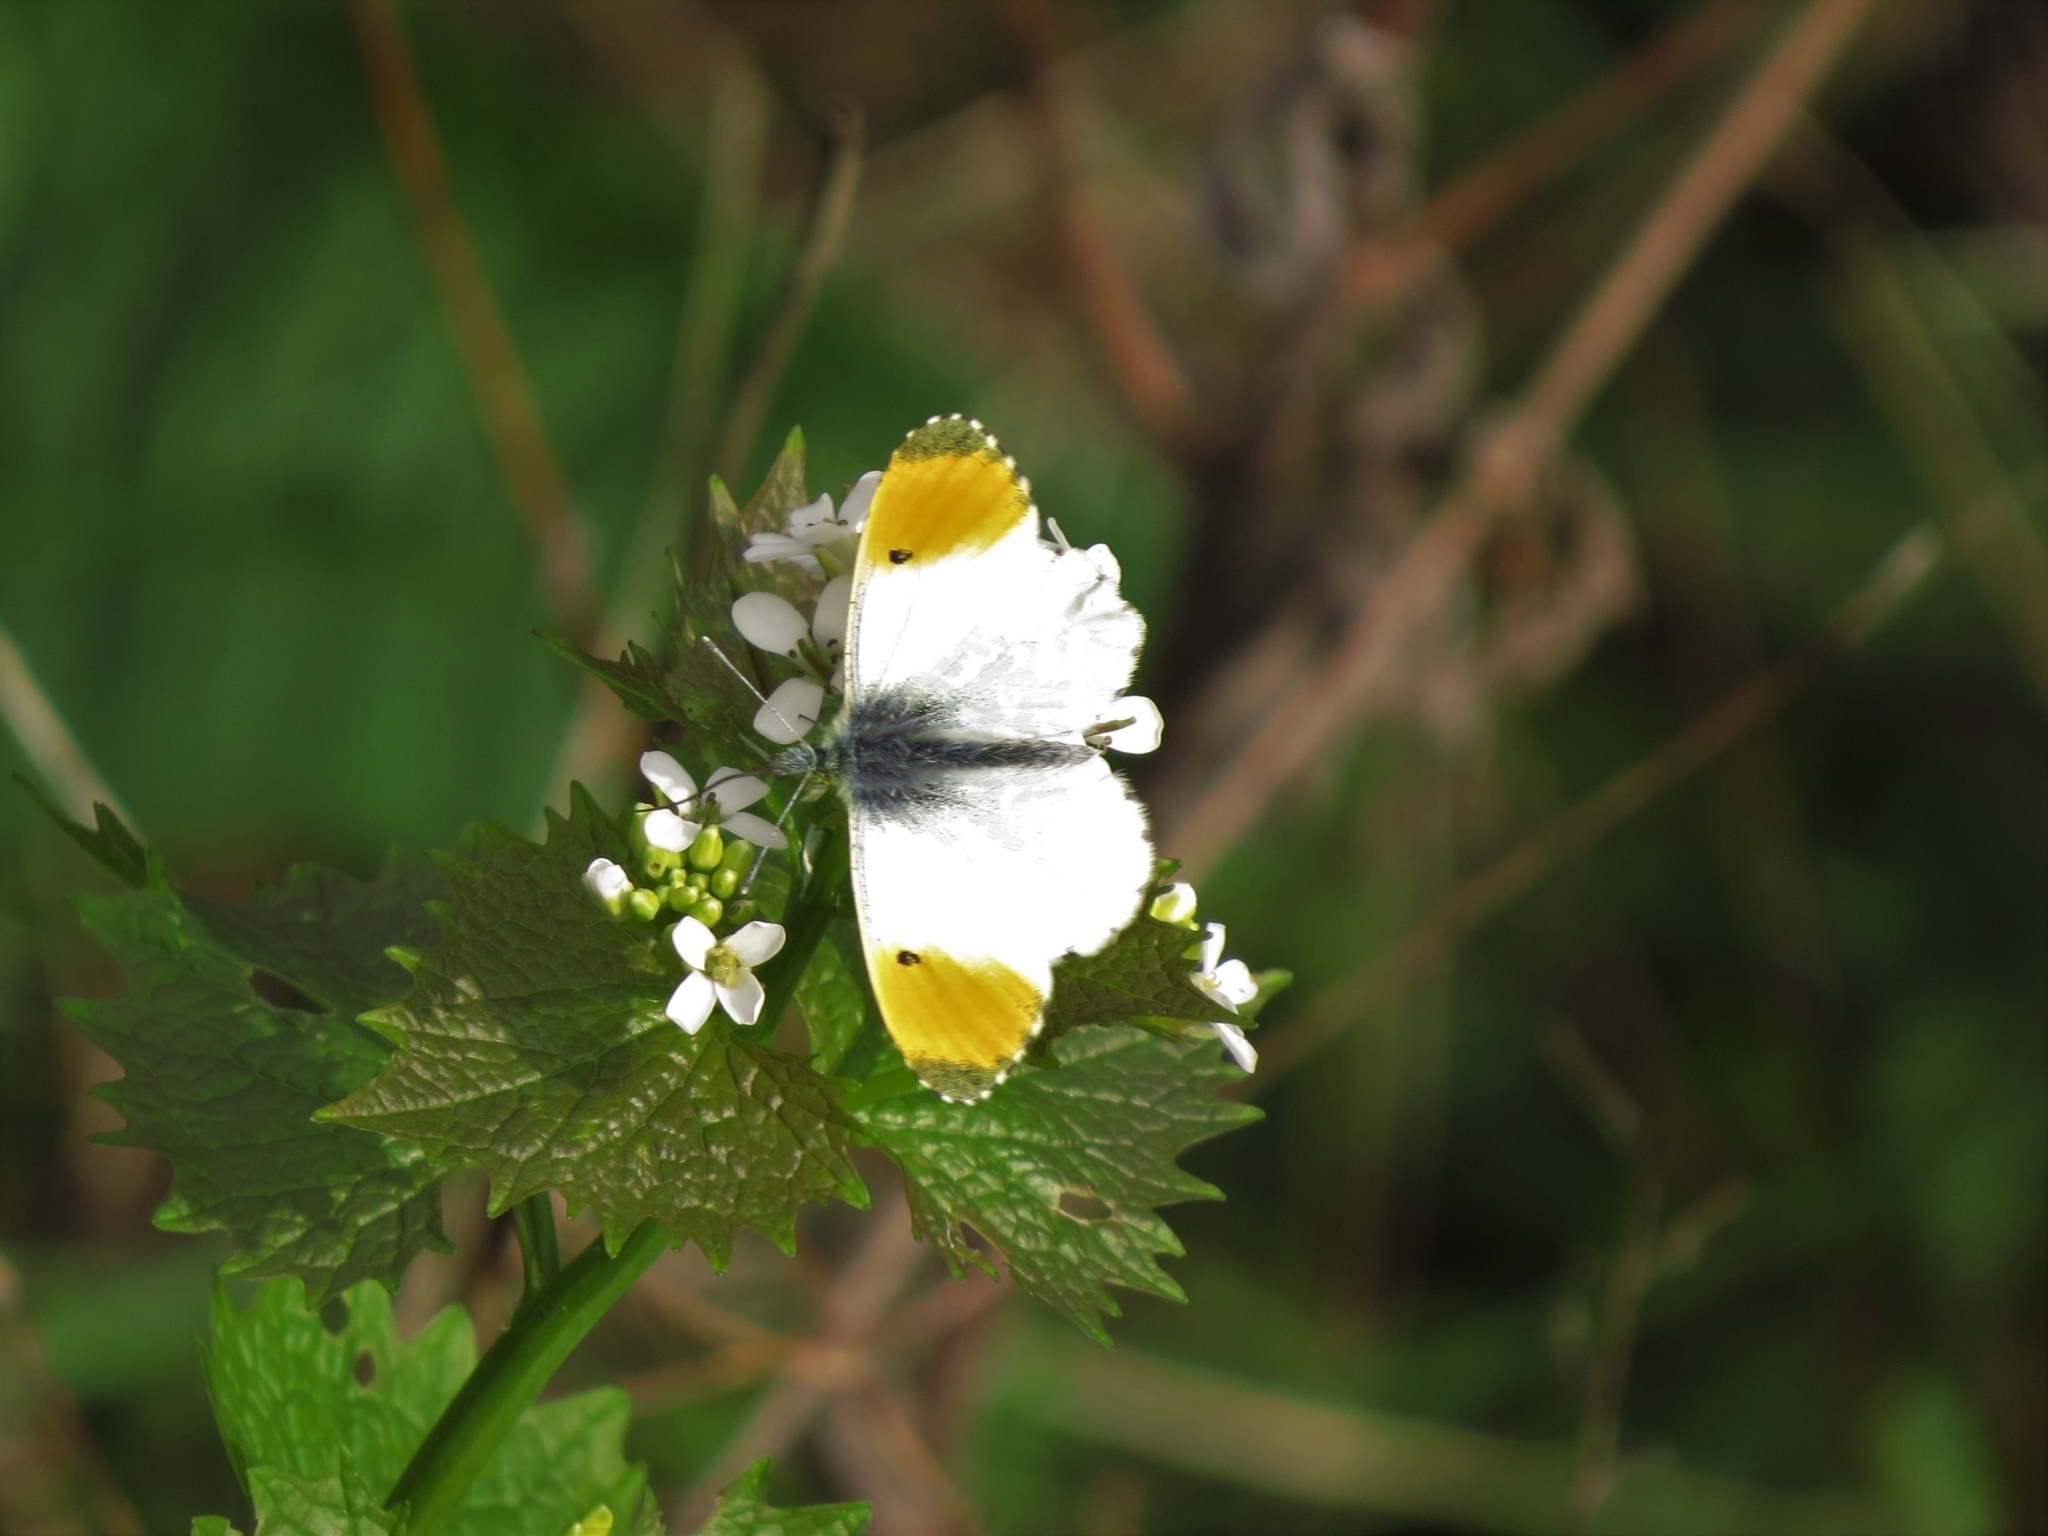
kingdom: Animalia
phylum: Arthropoda
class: Insecta
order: Lepidoptera
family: Pieridae
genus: Anthocharis
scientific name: Anthocharis cardamines
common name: Orange-tip
